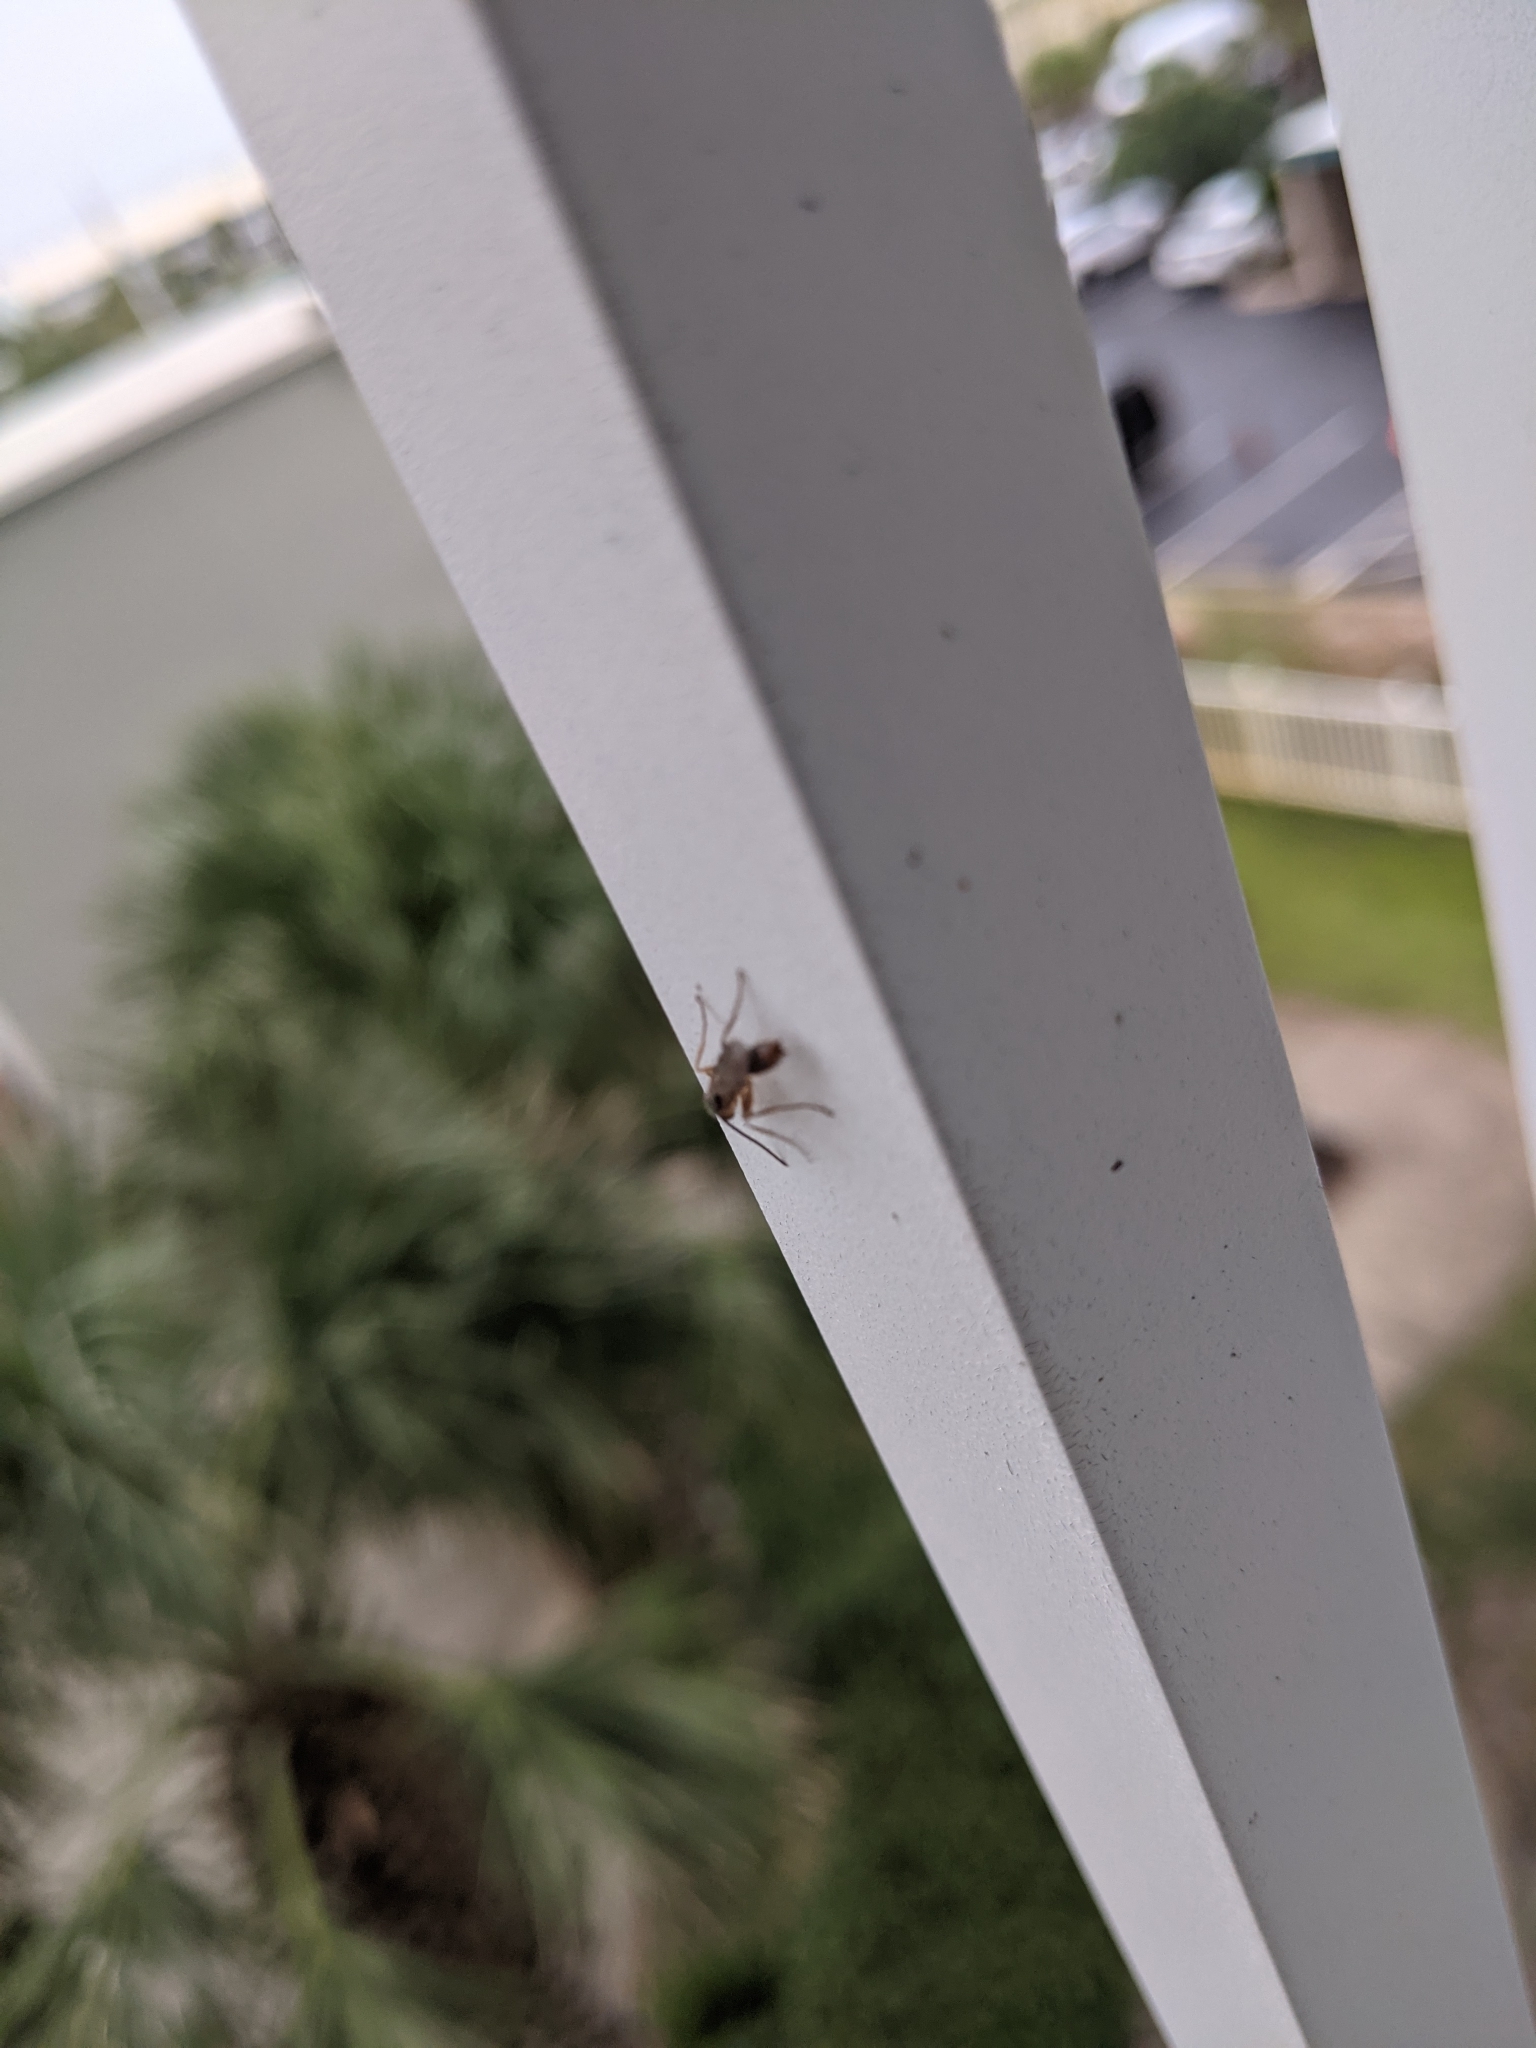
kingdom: Animalia
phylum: Arthropoda
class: Insecta
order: Hymenoptera
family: Formicidae
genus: Pseudomyrmex
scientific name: Pseudomyrmex gracilis
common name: Graceful twig ant
